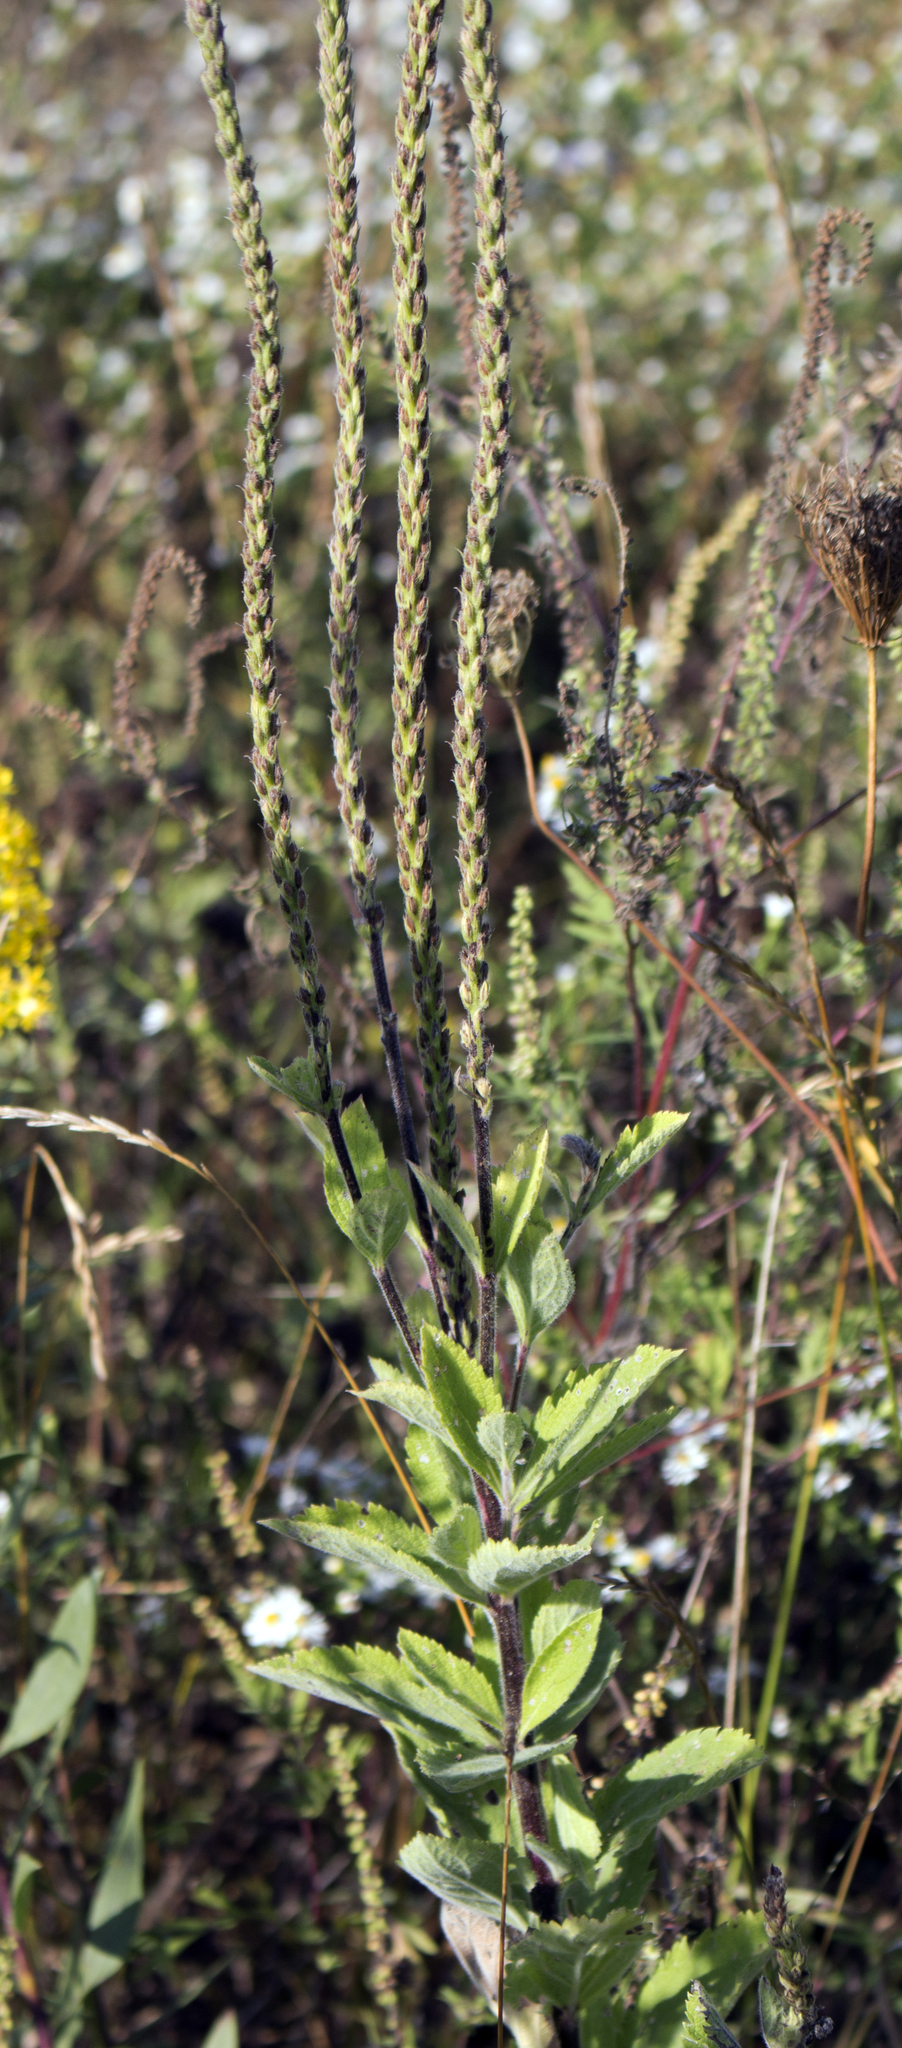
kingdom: Plantae
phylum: Tracheophyta
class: Magnoliopsida
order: Lamiales
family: Verbenaceae
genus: Verbena
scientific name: Verbena stricta
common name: Hoary vervain
